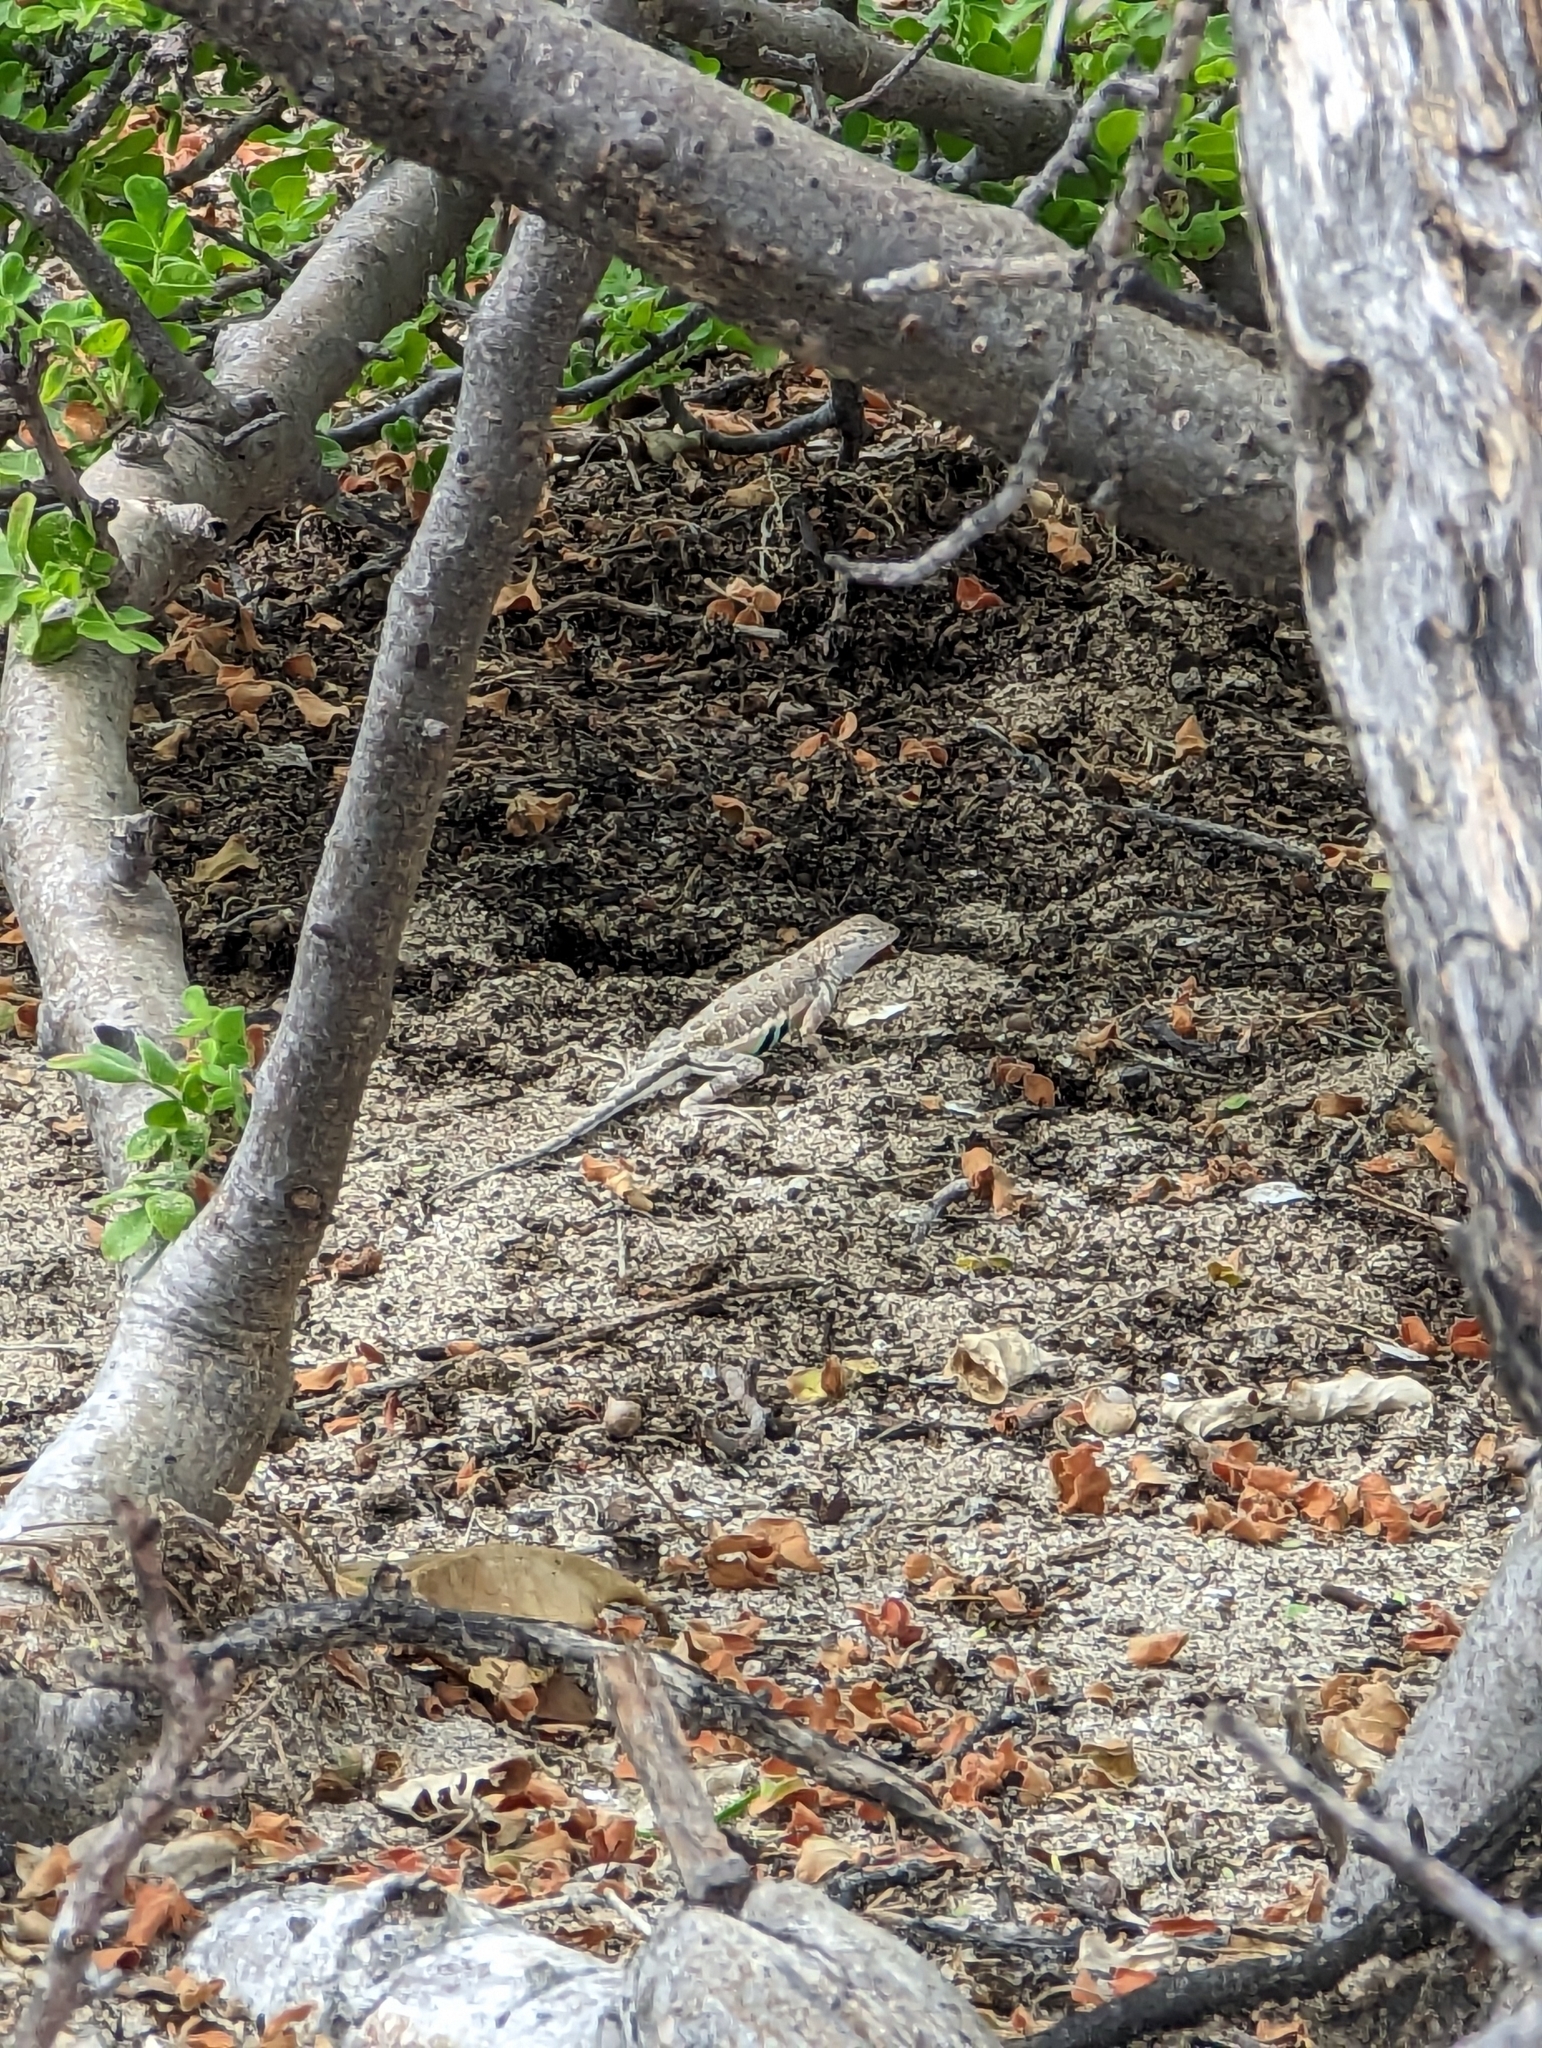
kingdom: Animalia
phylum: Chordata
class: Squamata
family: Phrynosomatidae
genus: Callisaurus
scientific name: Callisaurus draconoides
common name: Zebra-tailed lizard
